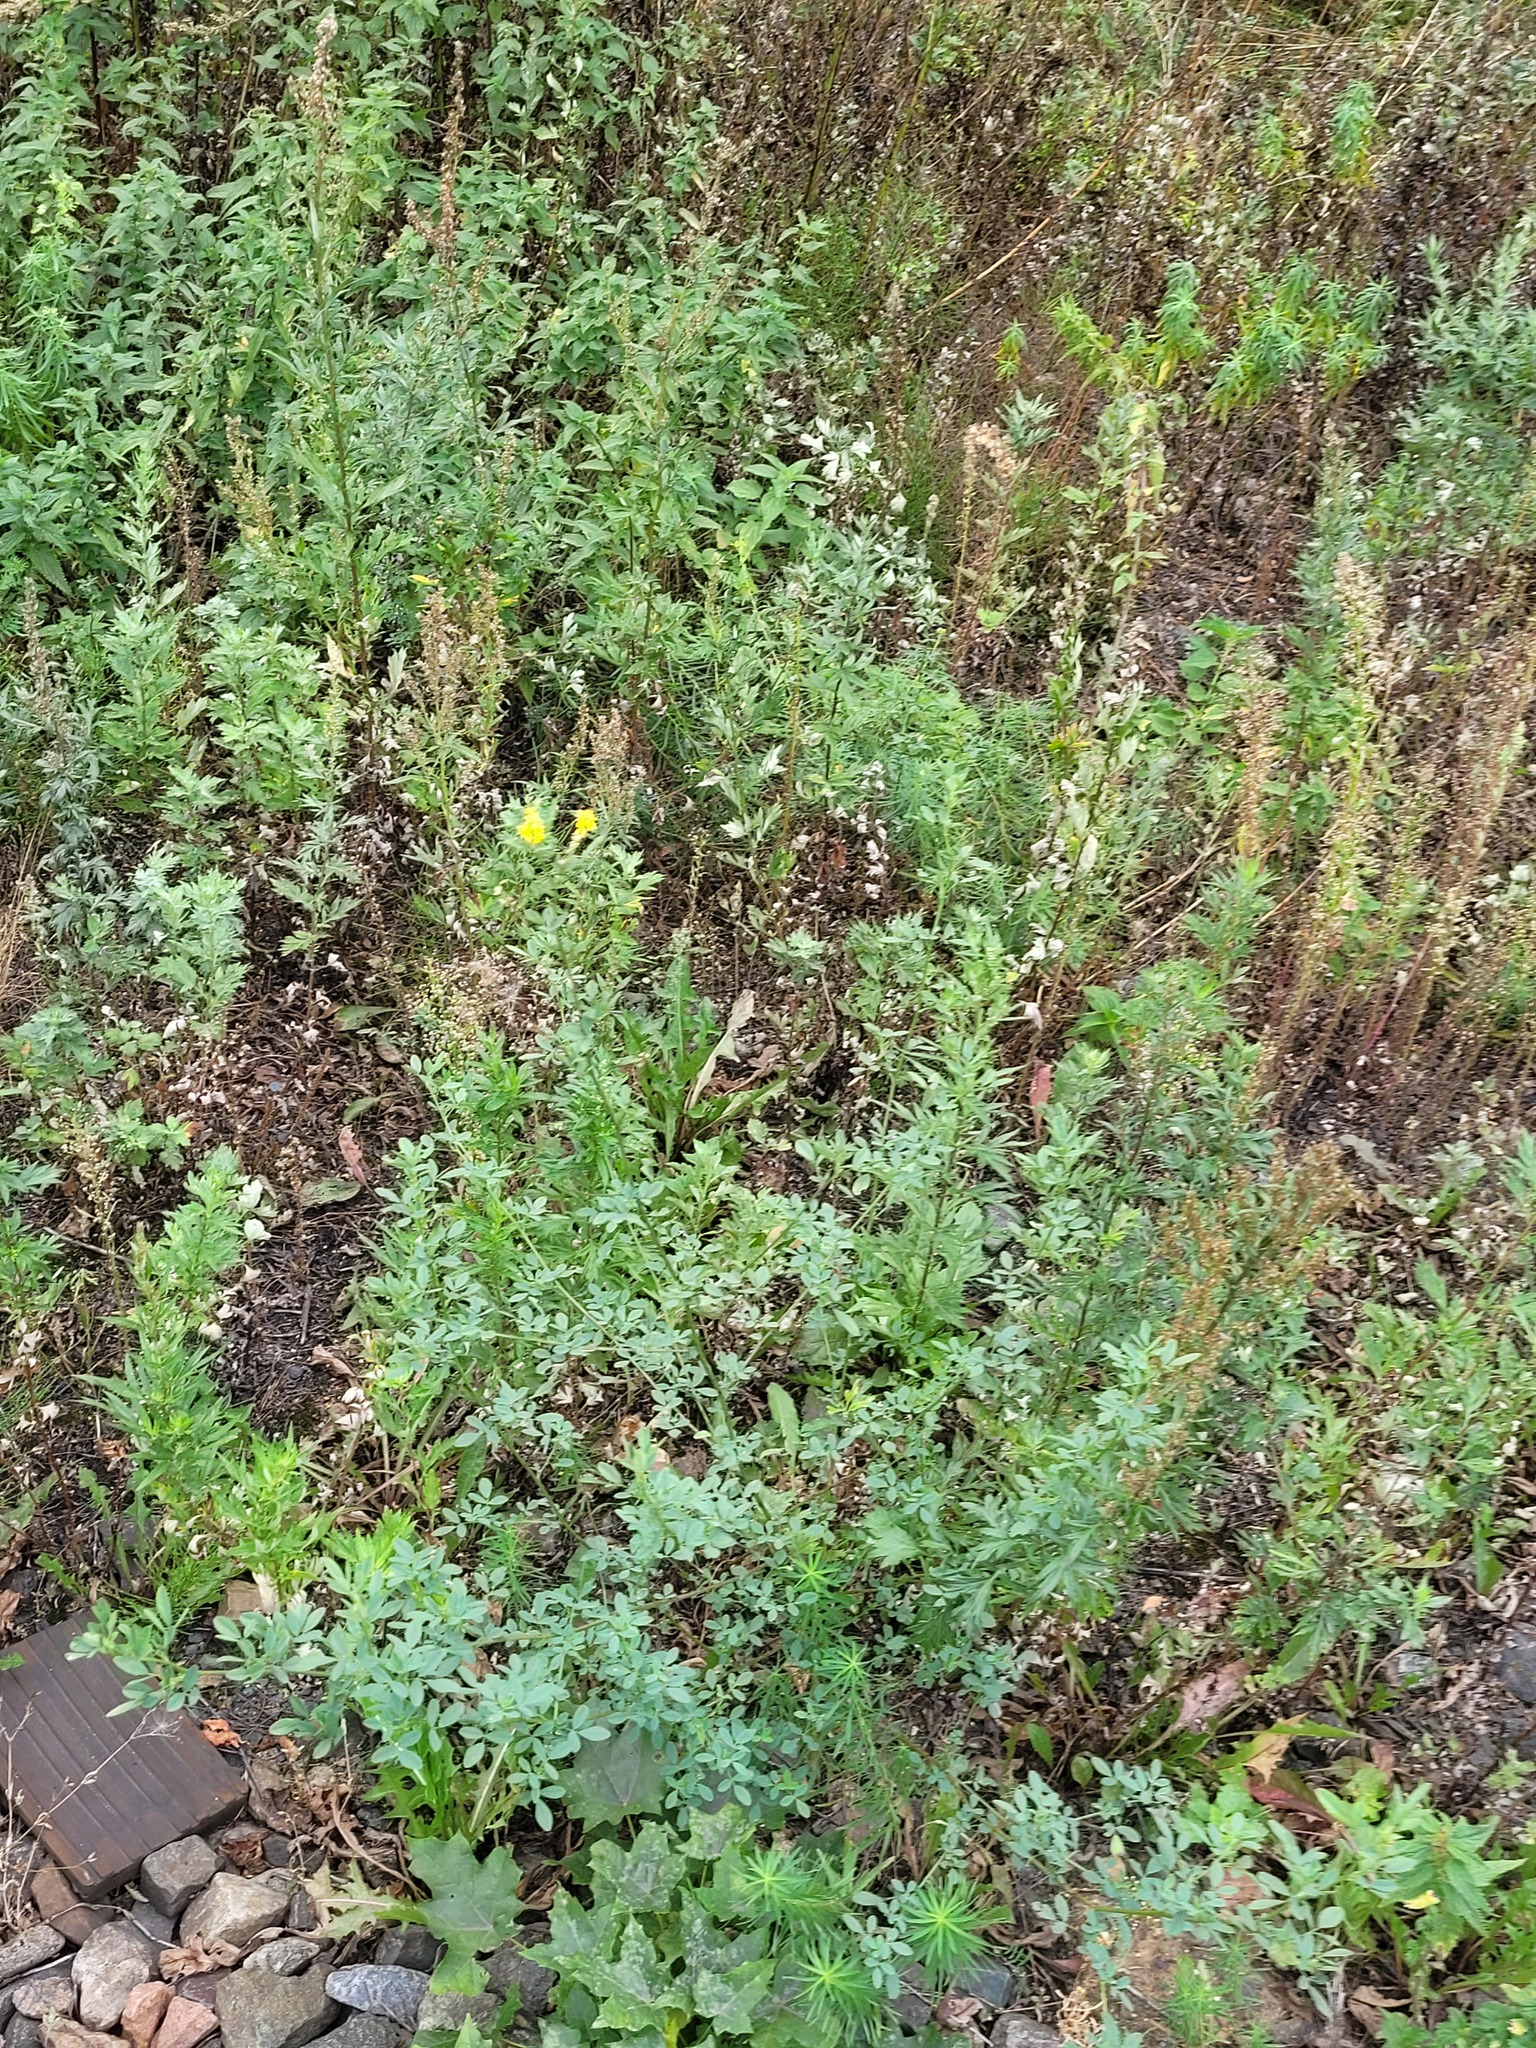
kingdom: Plantae
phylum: Tracheophyta
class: Magnoliopsida
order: Fabales
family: Fabaceae
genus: Melilotus
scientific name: Melilotus officinalis
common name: Sweetclover
